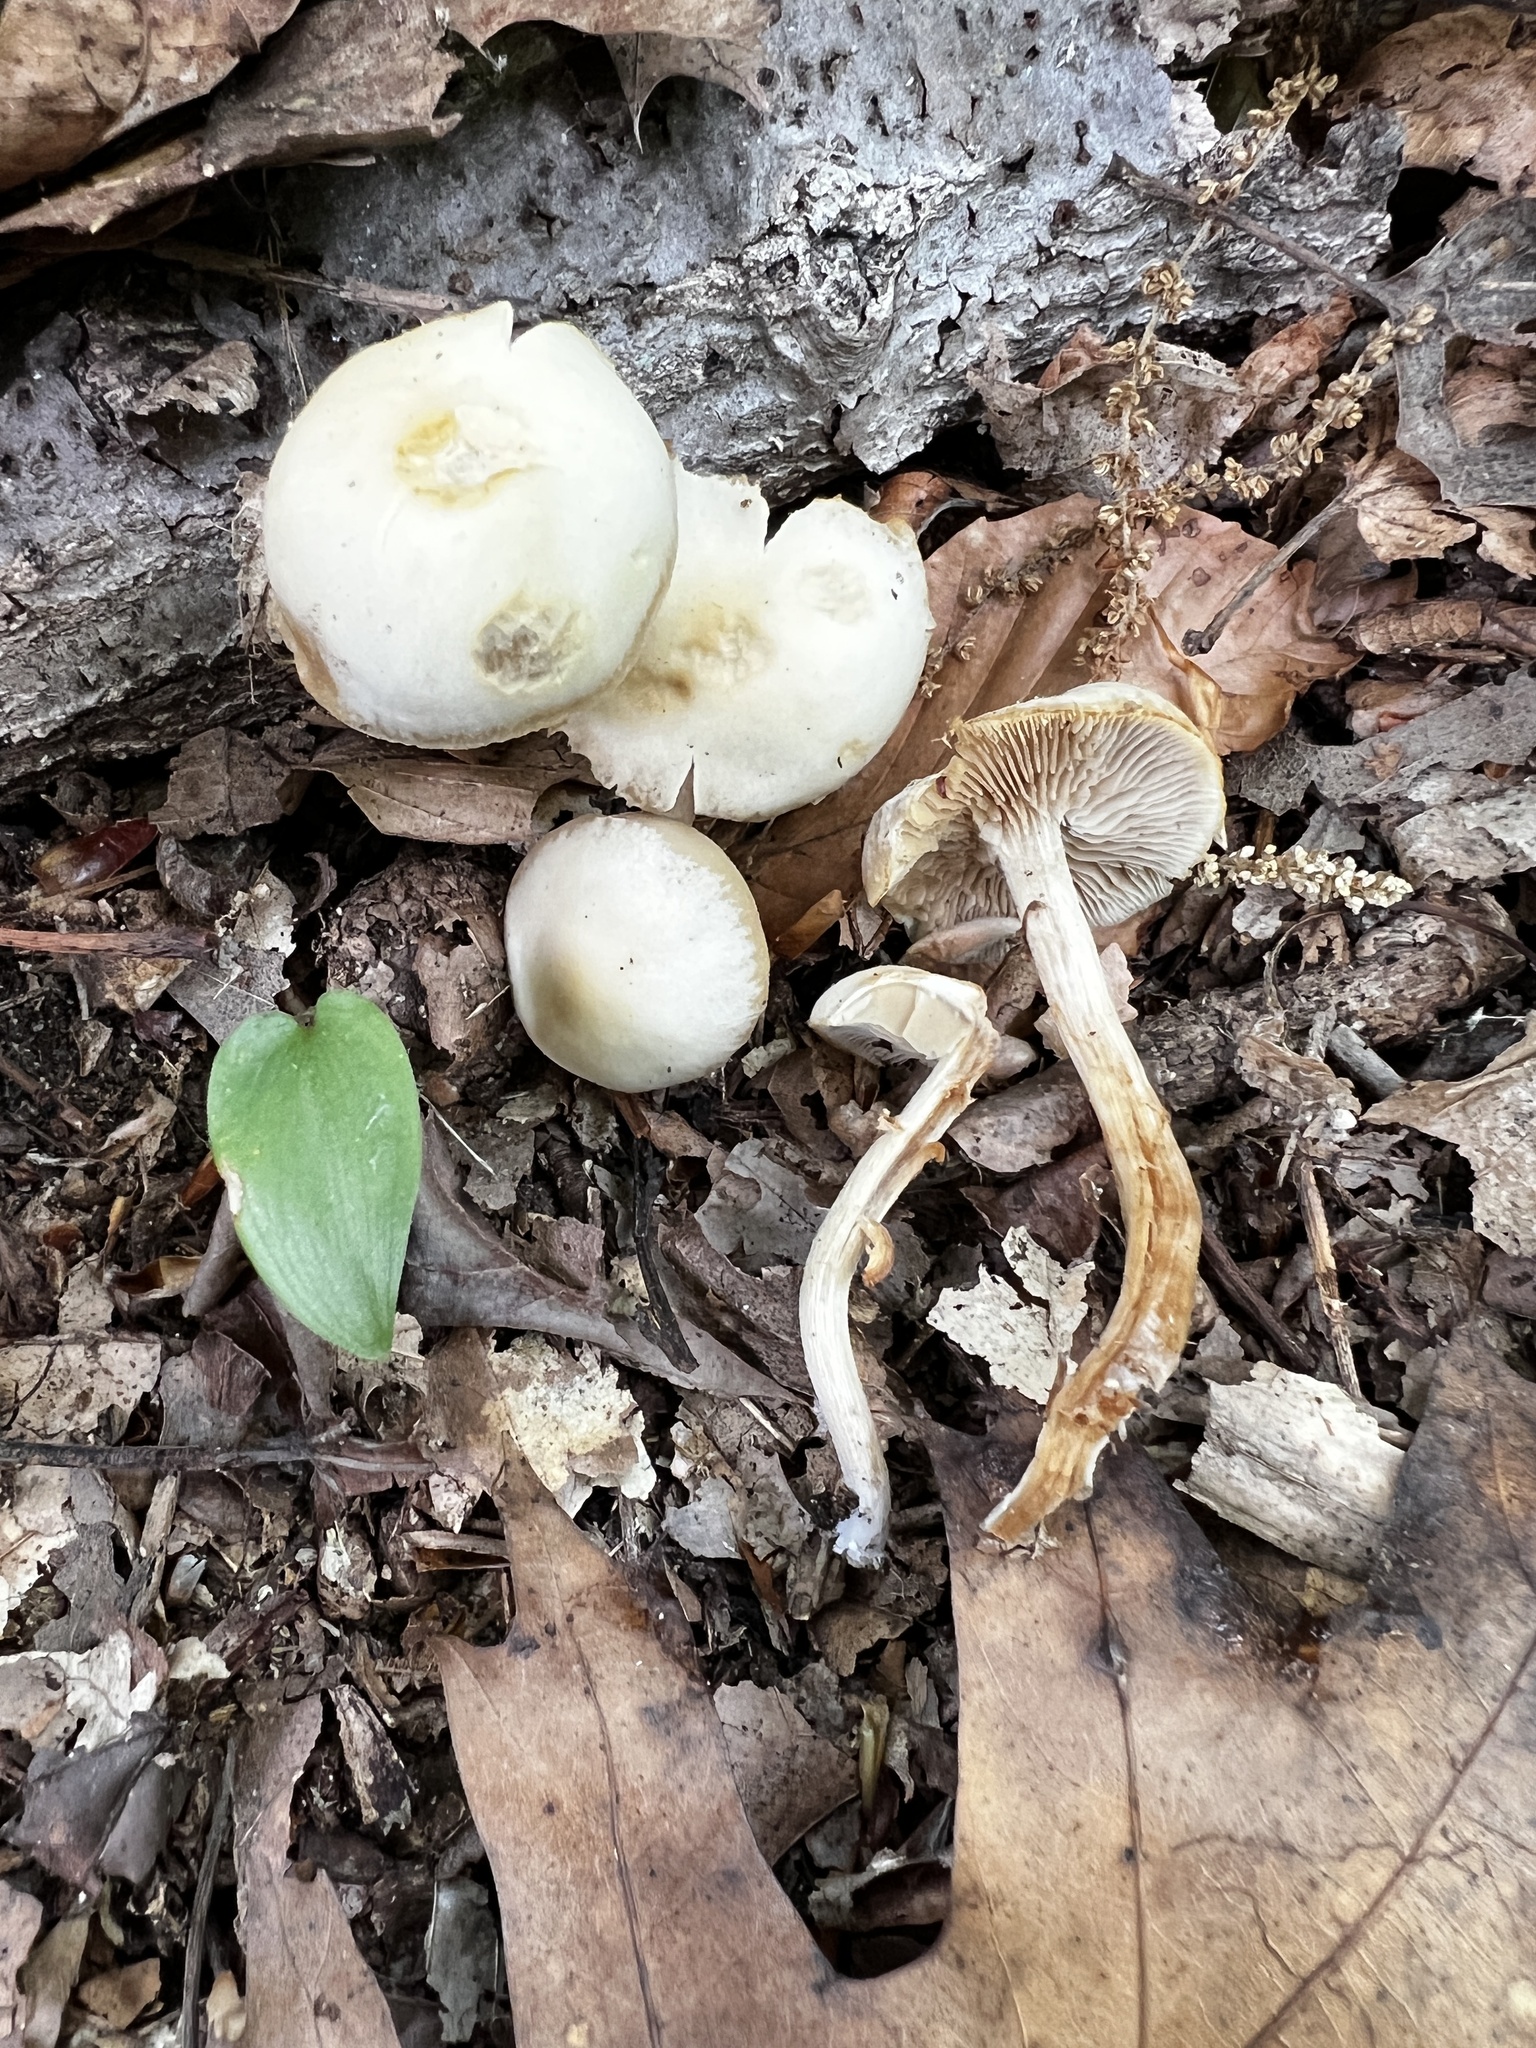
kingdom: Fungi
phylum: Basidiomycota
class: Agaricomycetes
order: Agaricales
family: Strophariaceae
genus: Kuehneromyces
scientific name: Kuehneromyces marginellus
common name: Sheathed woodtuft
